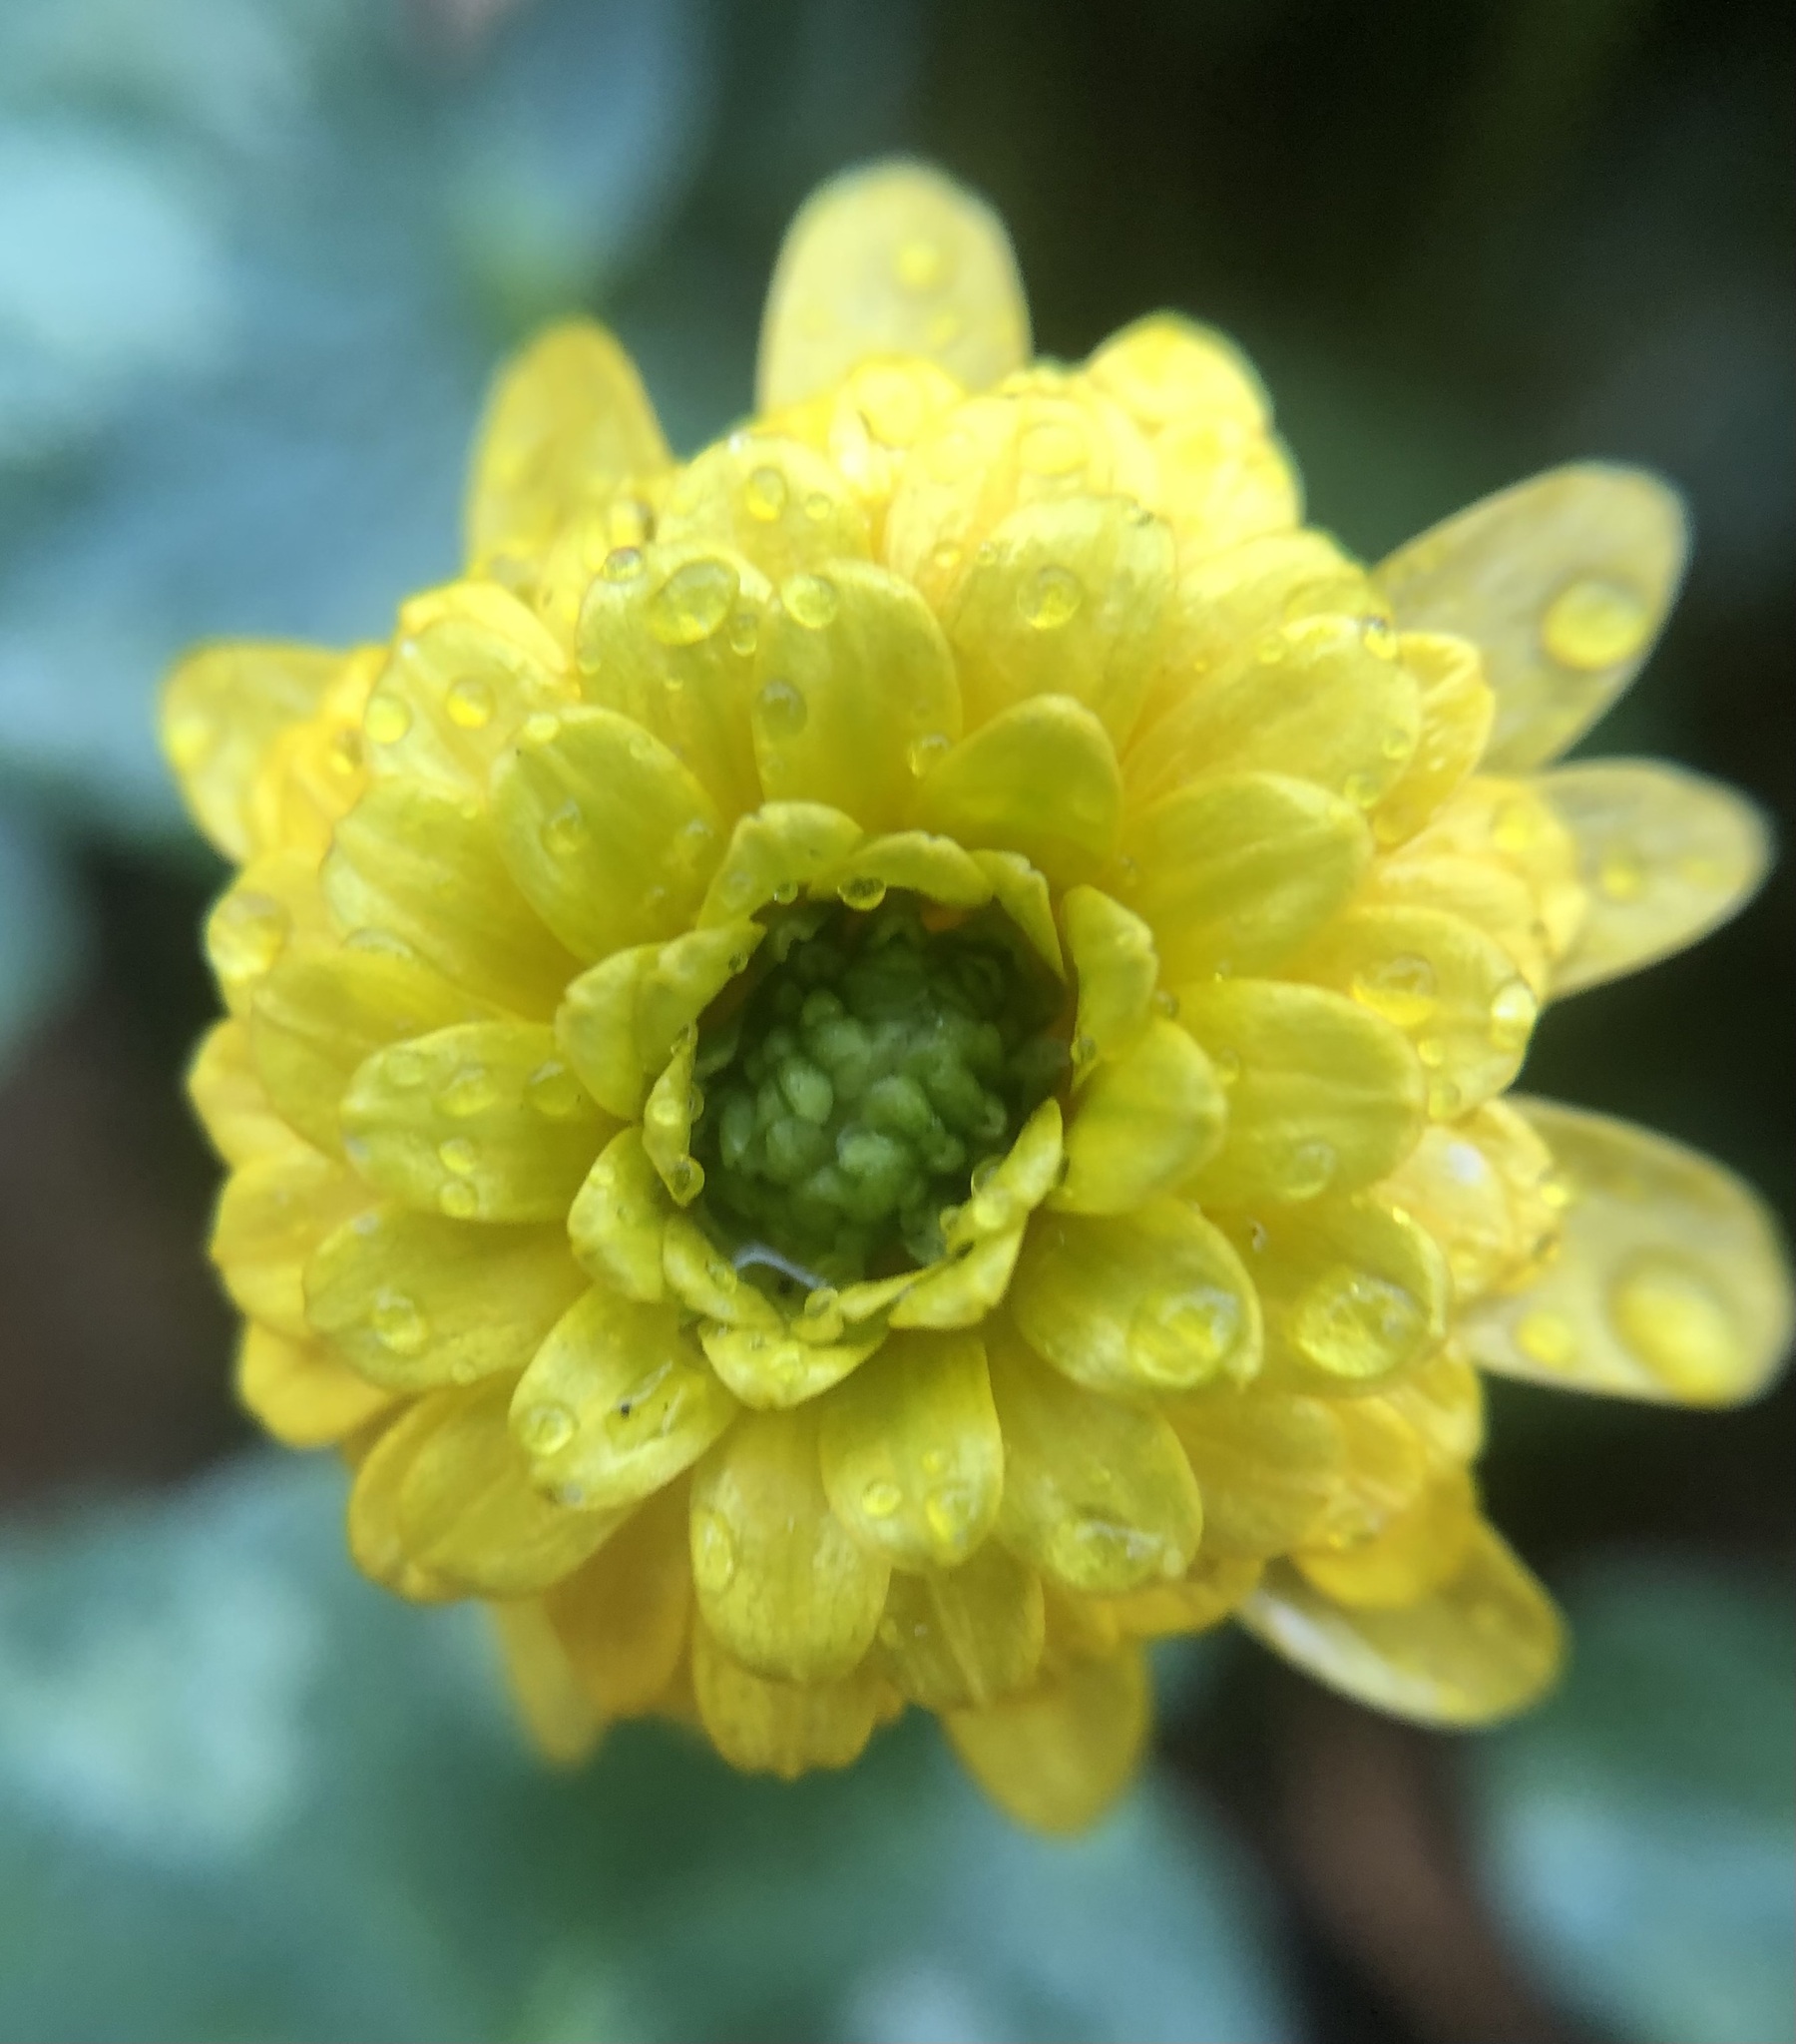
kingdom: Plantae
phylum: Tracheophyta
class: Magnoliopsida
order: Ranunculales
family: Ranunculaceae
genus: Ficaria
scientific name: Ficaria verna
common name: Lesser celandine
